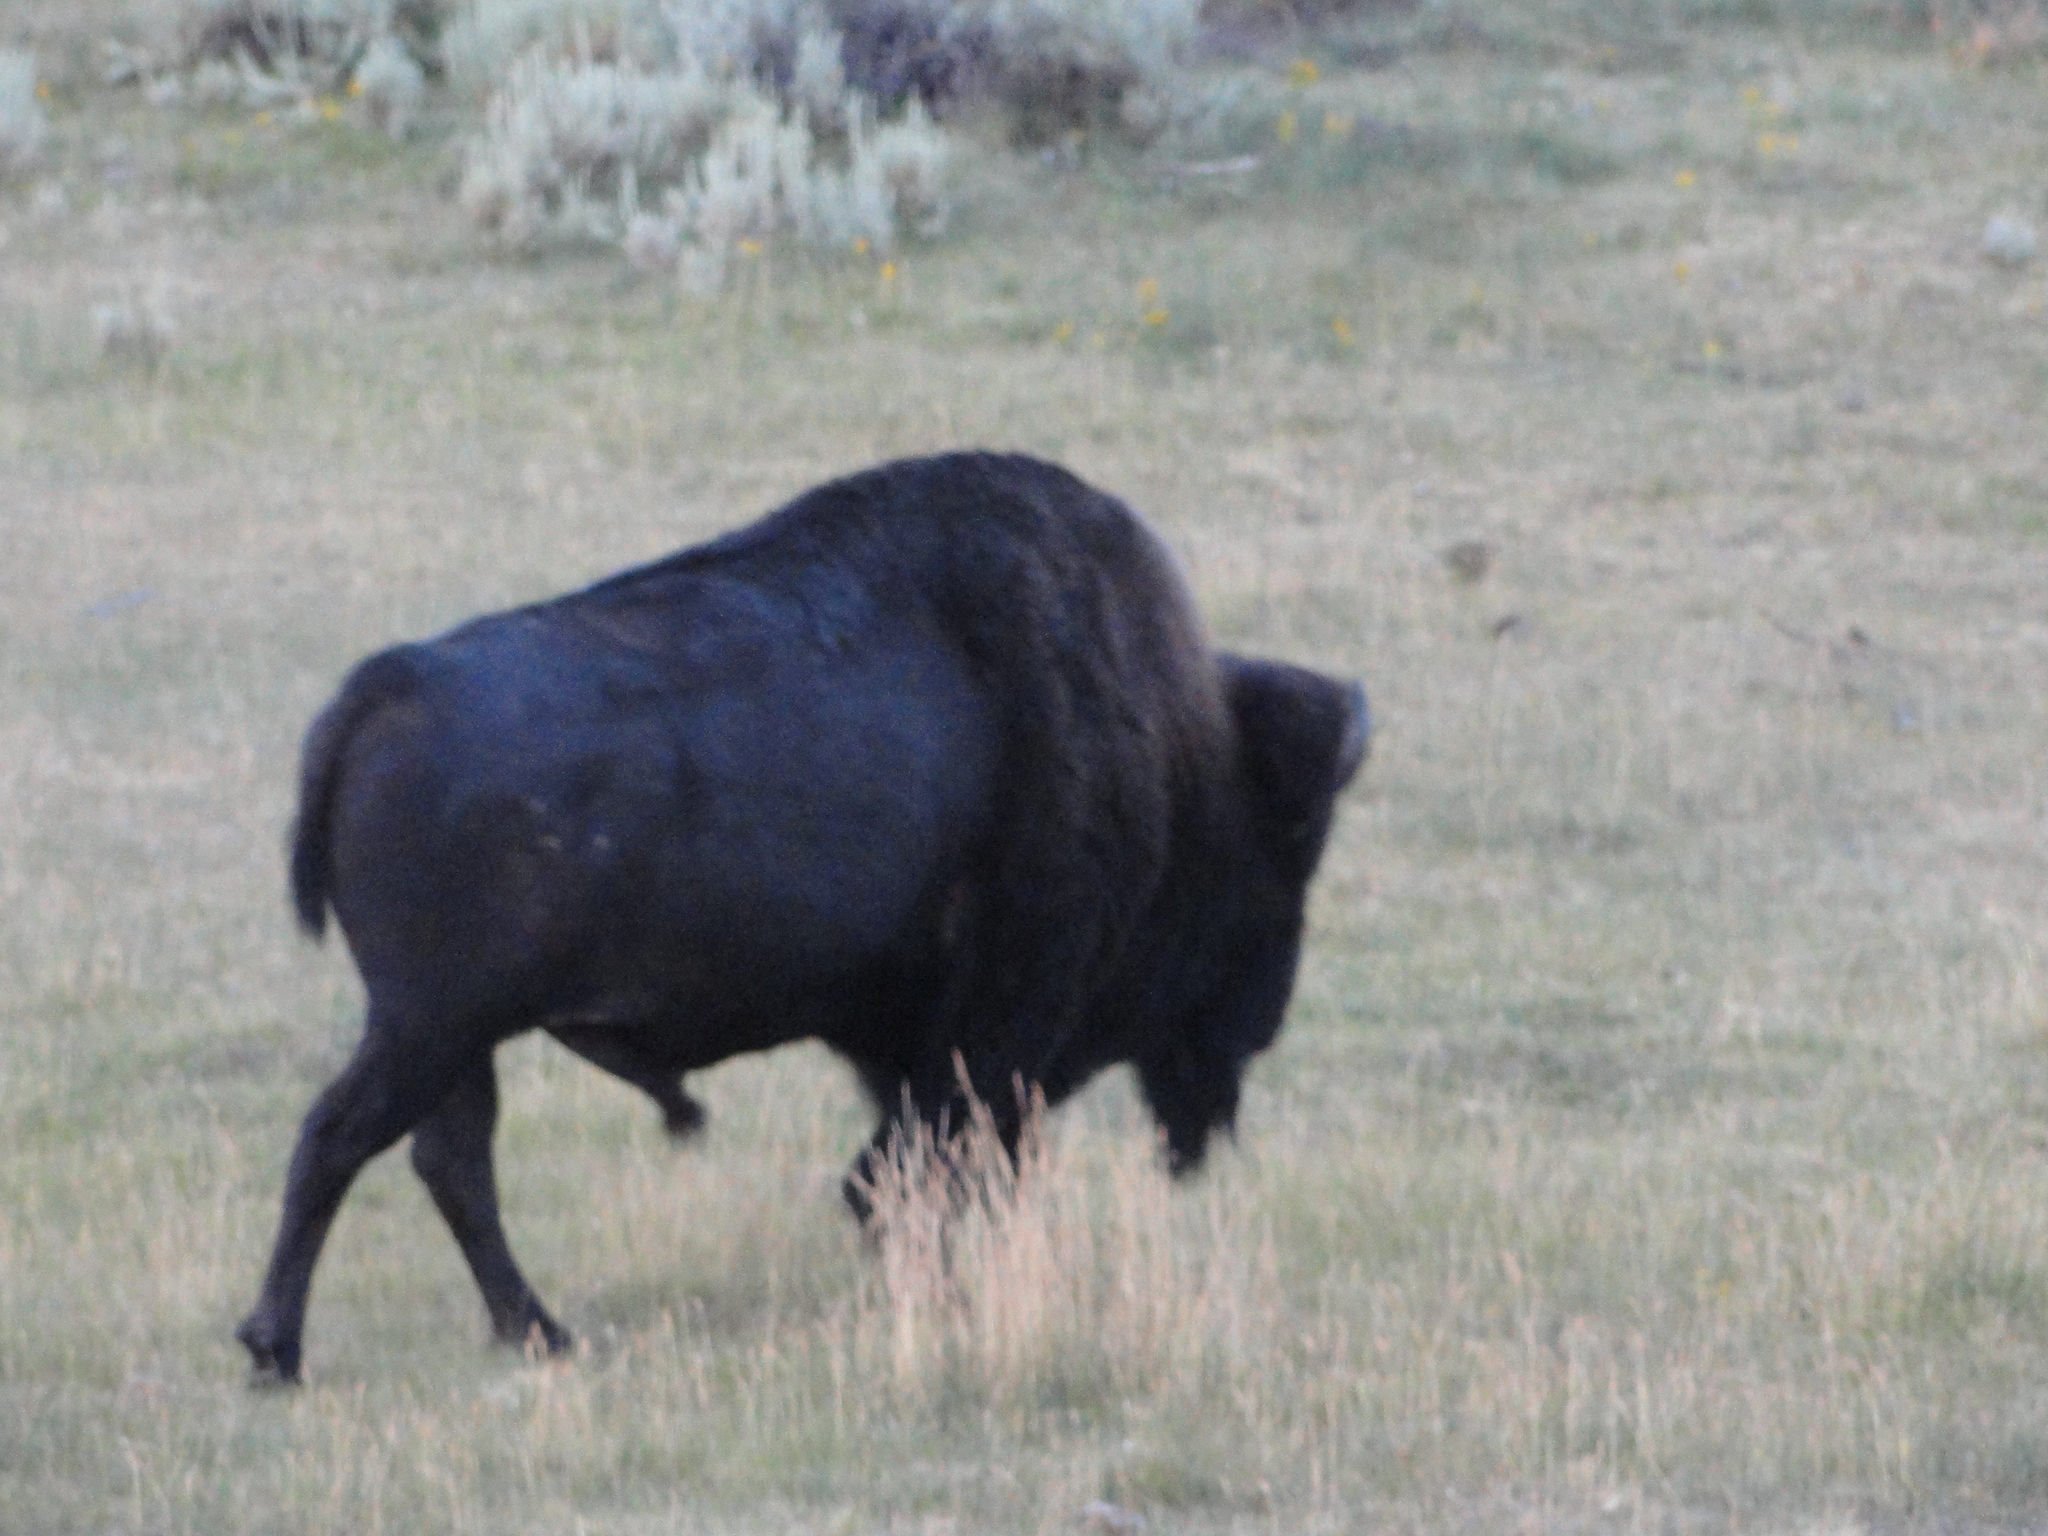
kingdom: Animalia
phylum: Chordata
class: Mammalia
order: Artiodactyla
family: Bovidae
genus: Bison
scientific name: Bison bison
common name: American bison
